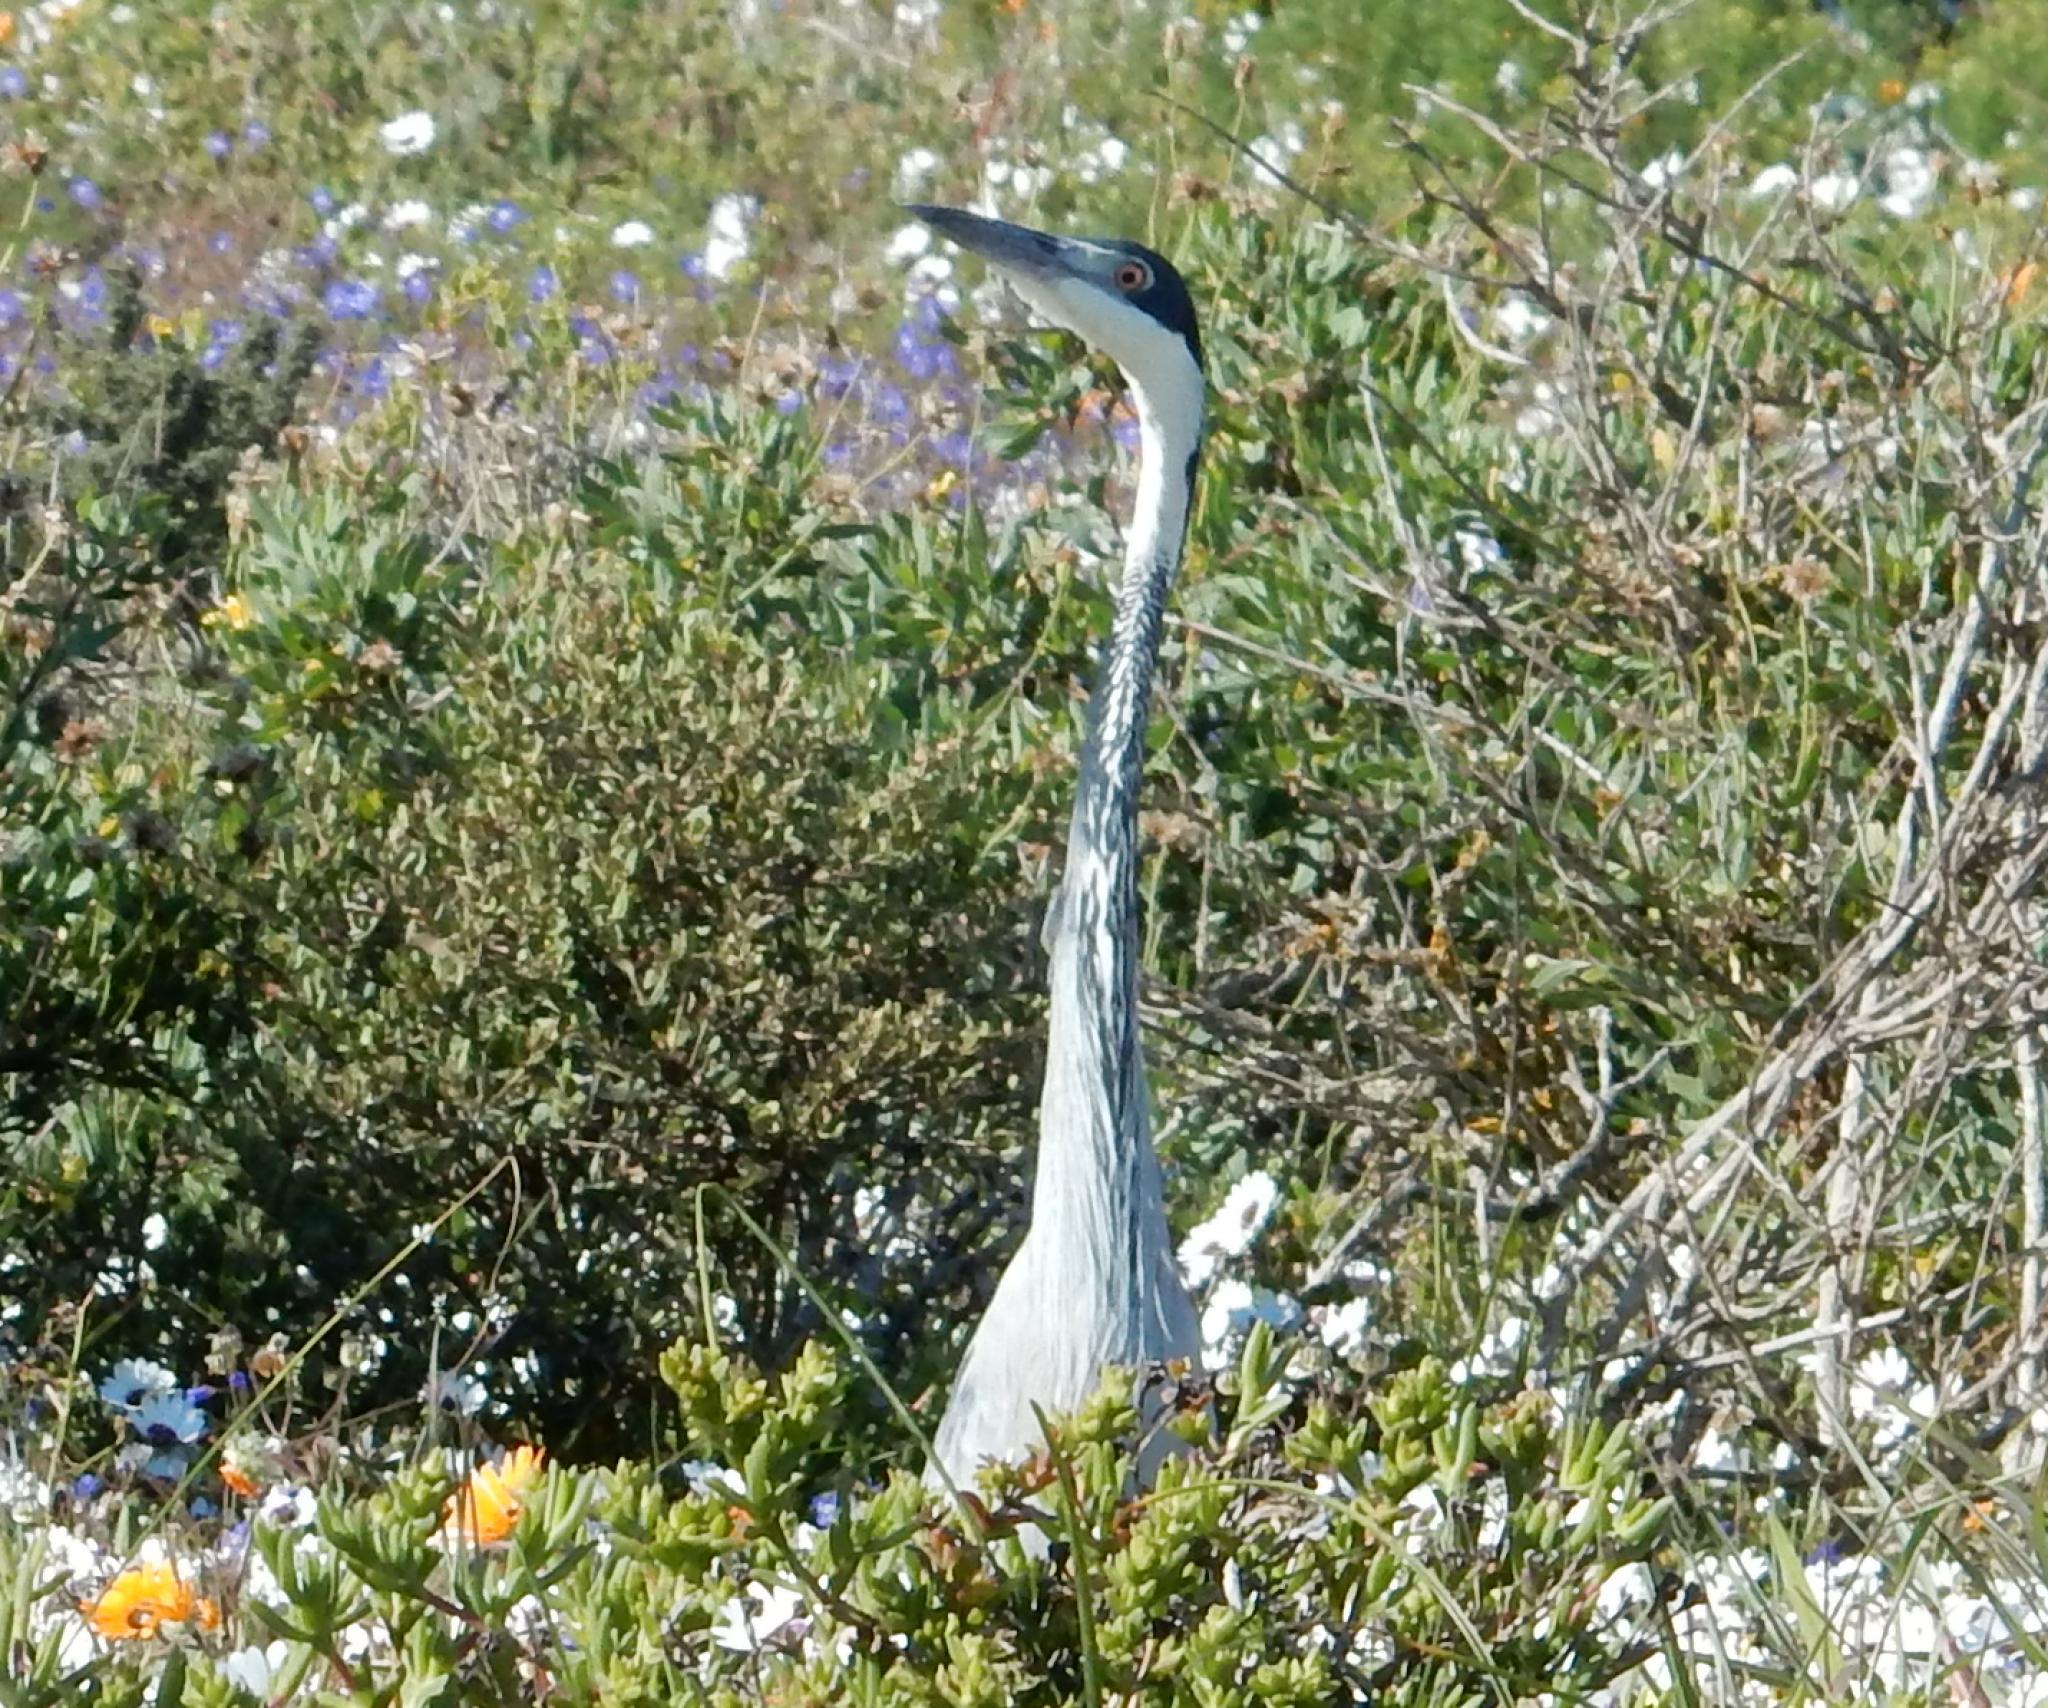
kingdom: Animalia
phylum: Chordata
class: Aves
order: Pelecaniformes
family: Ardeidae
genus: Ardea
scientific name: Ardea melanocephala
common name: Black-headed heron
